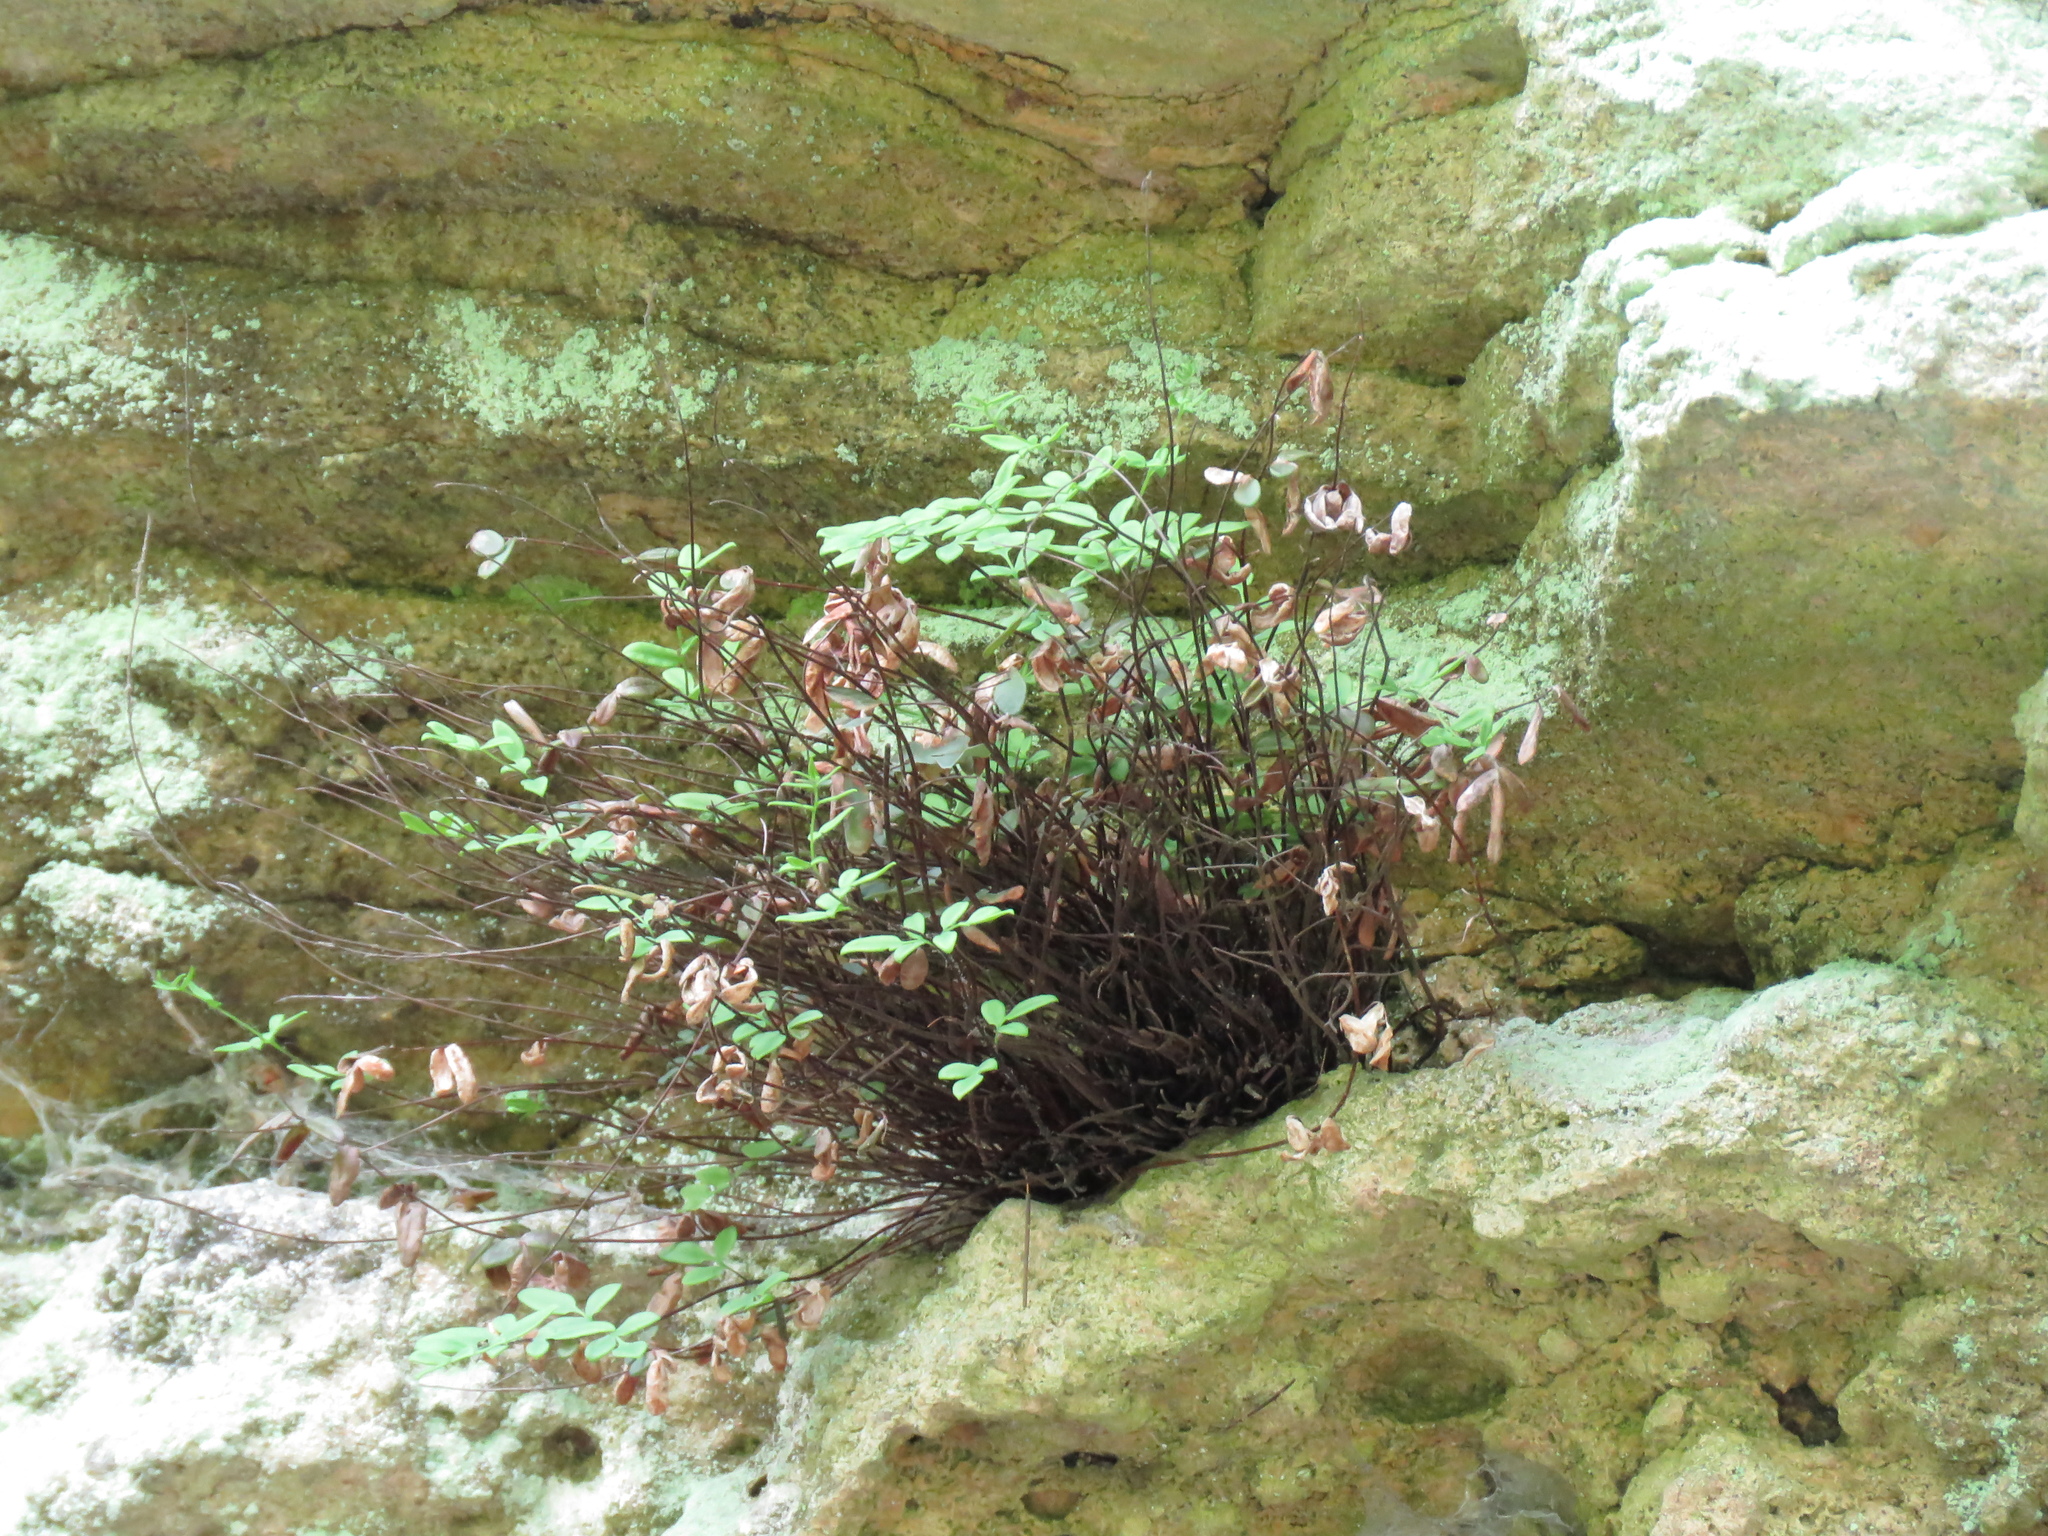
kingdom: Plantae
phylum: Tracheophyta
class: Polypodiopsida
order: Polypodiales
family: Pteridaceae
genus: Pellaea
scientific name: Pellaea glabella
